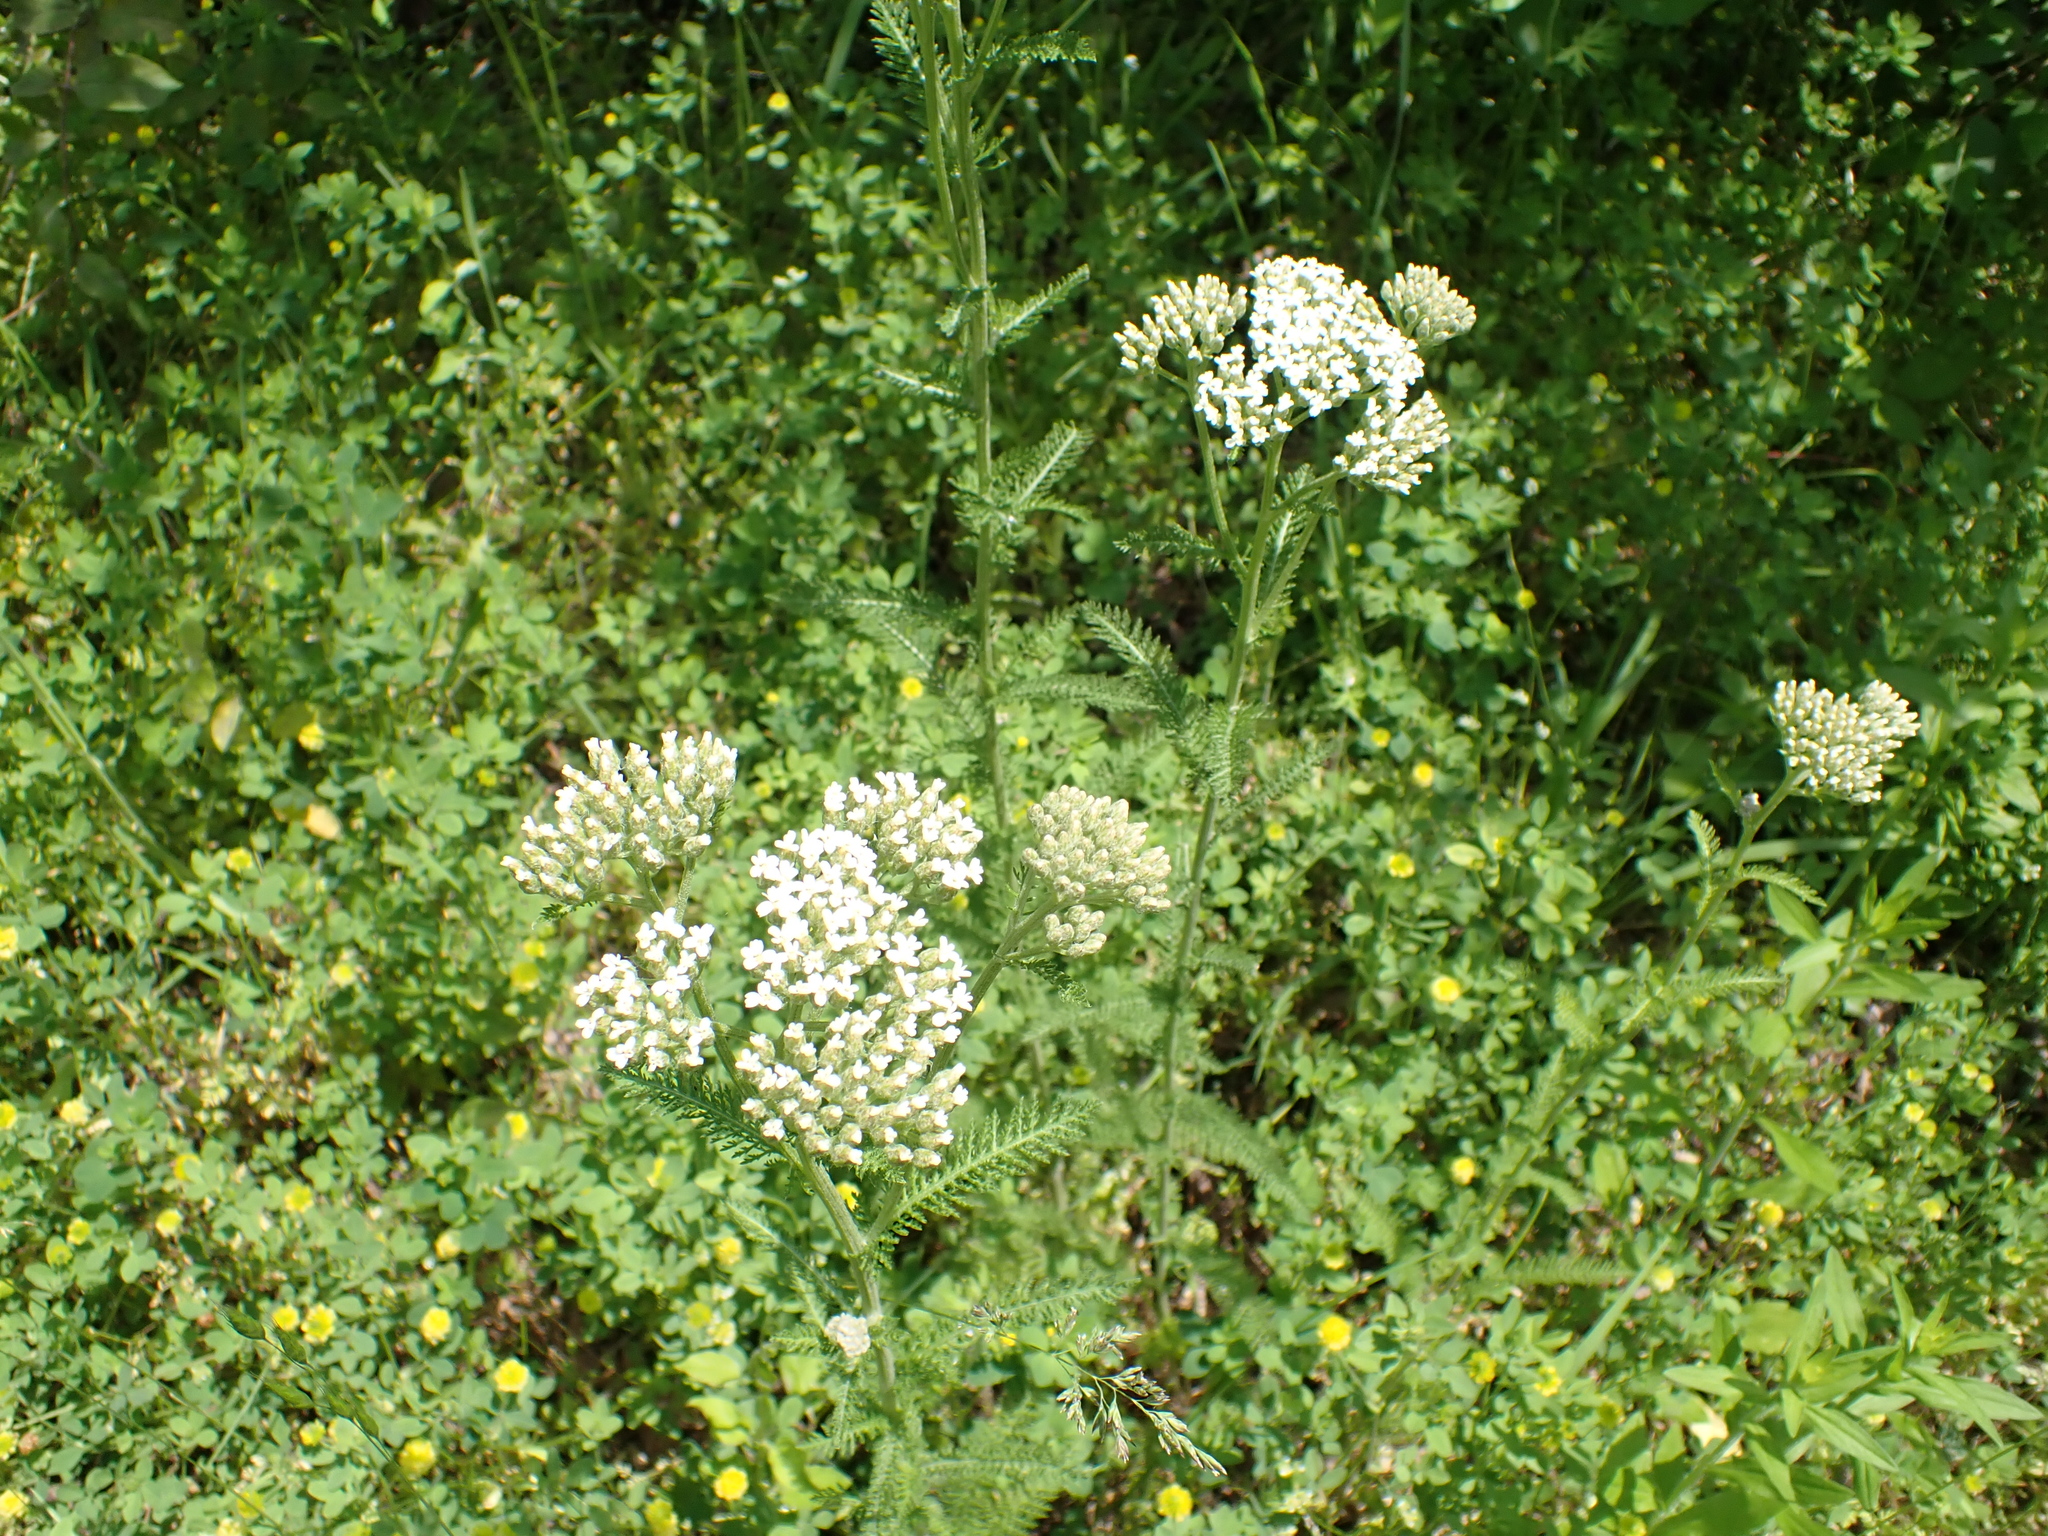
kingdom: Plantae
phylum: Tracheophyta
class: Magnoliopsida
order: Asterales
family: Asteraceae
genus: Achillea
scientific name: Achillea millefolium
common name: Yarrow
